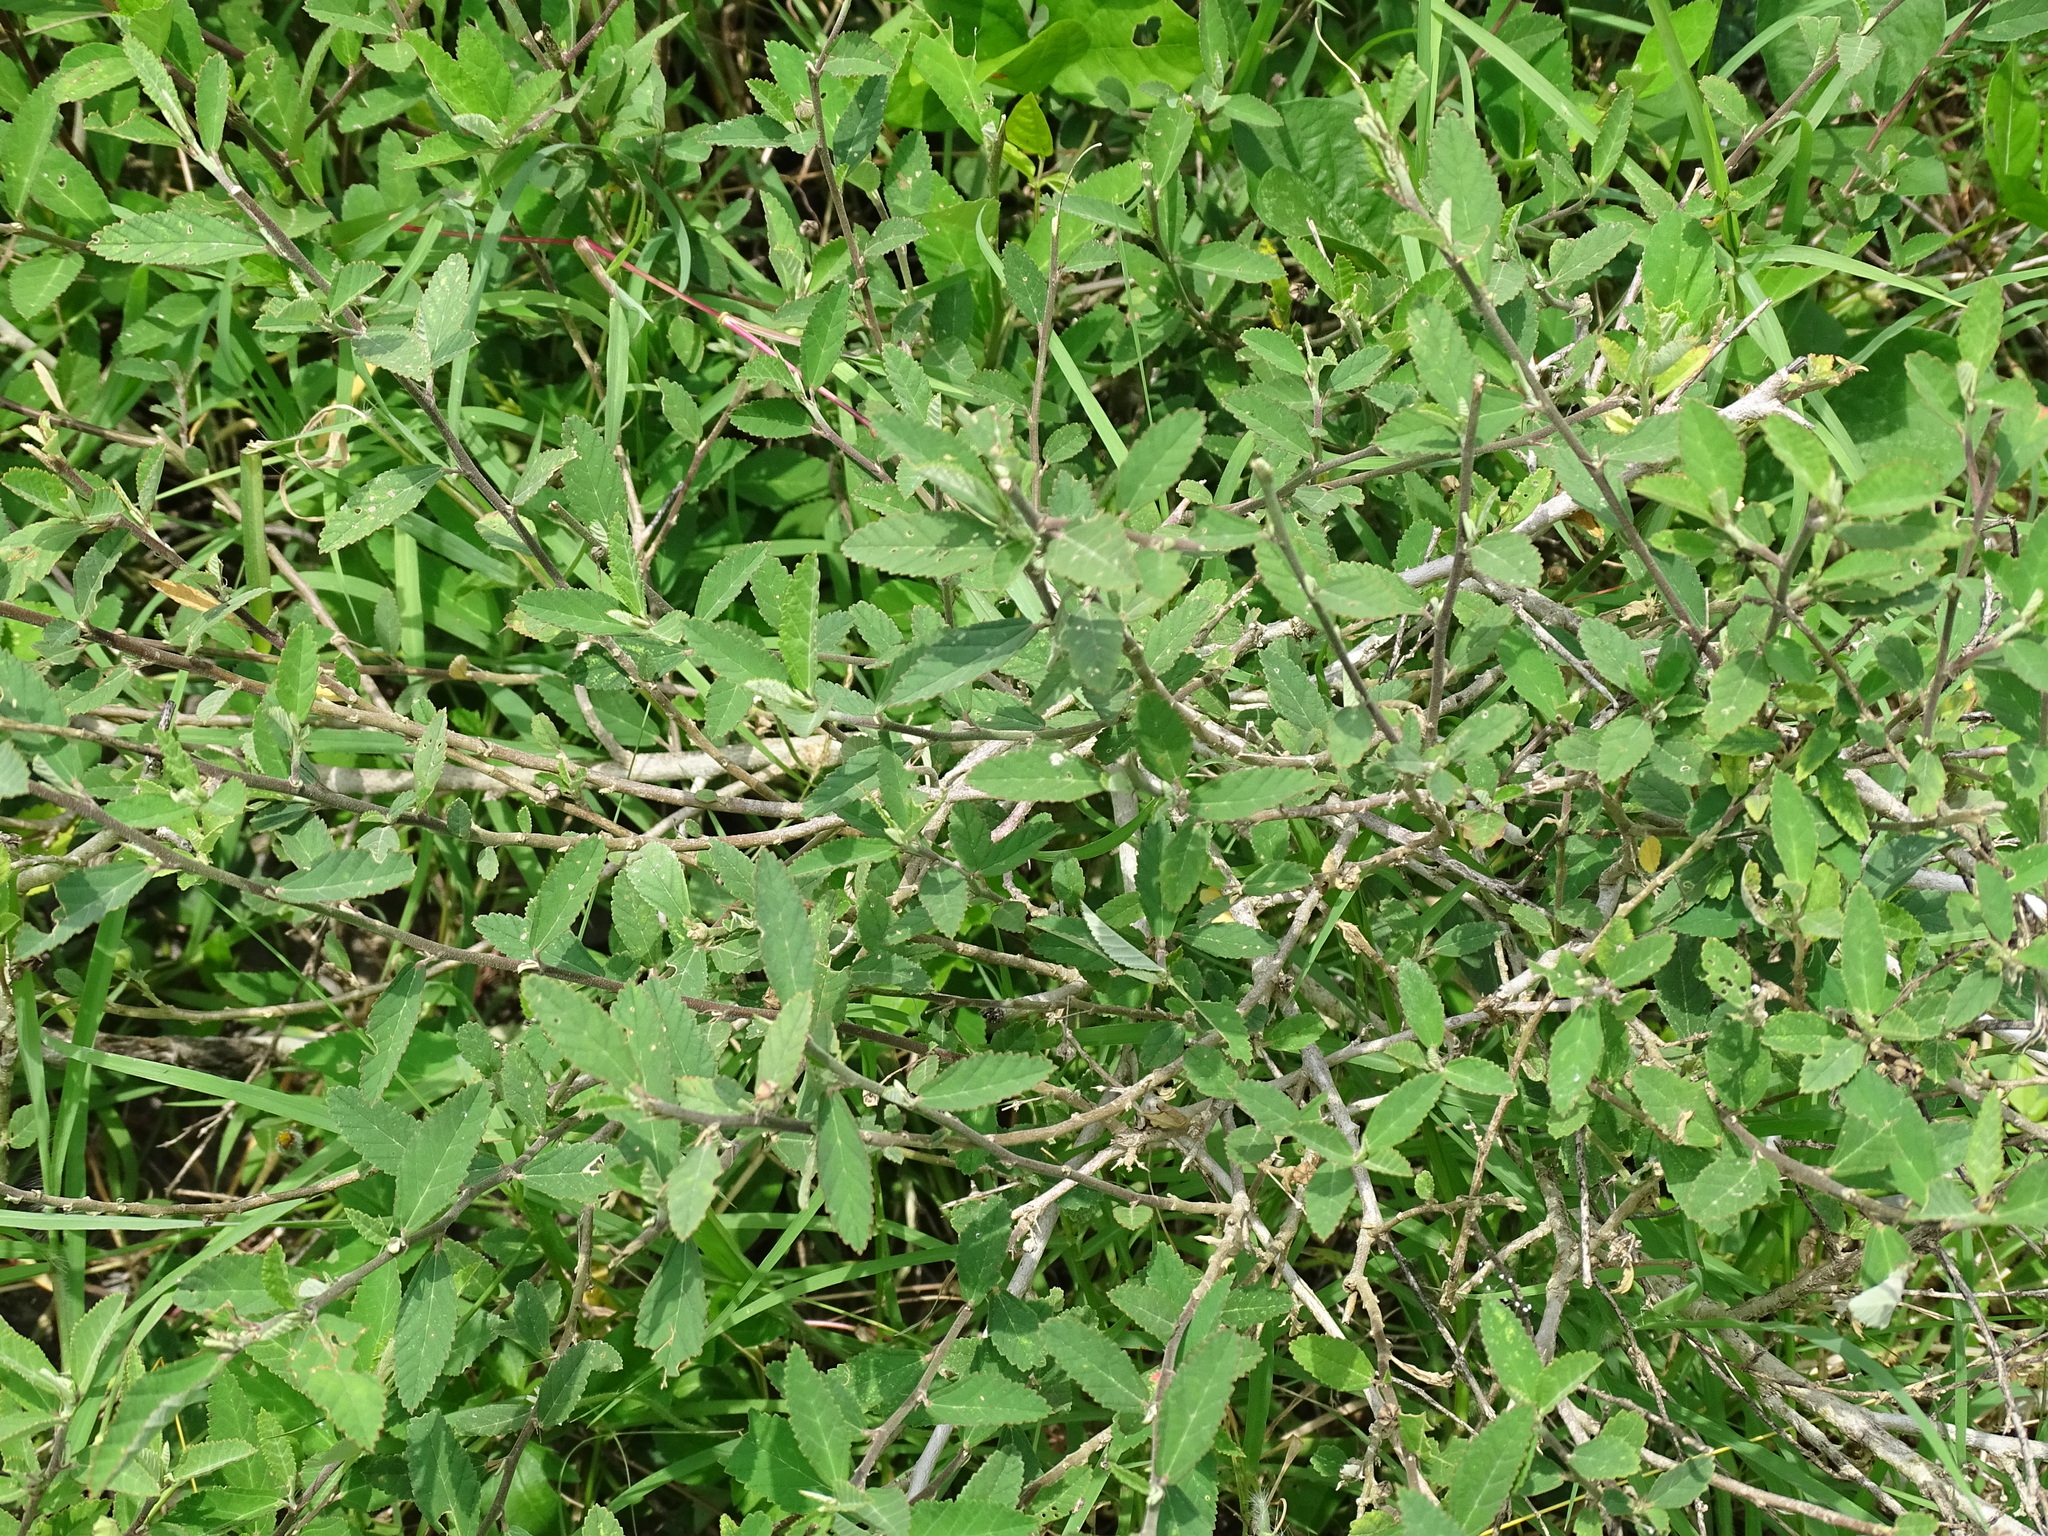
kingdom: Plantae
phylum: Tracheophyta
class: Magnoliopsida
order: Malvales
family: Malvaceae
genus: Sida
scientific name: Sida acuta
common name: Common wireweed
